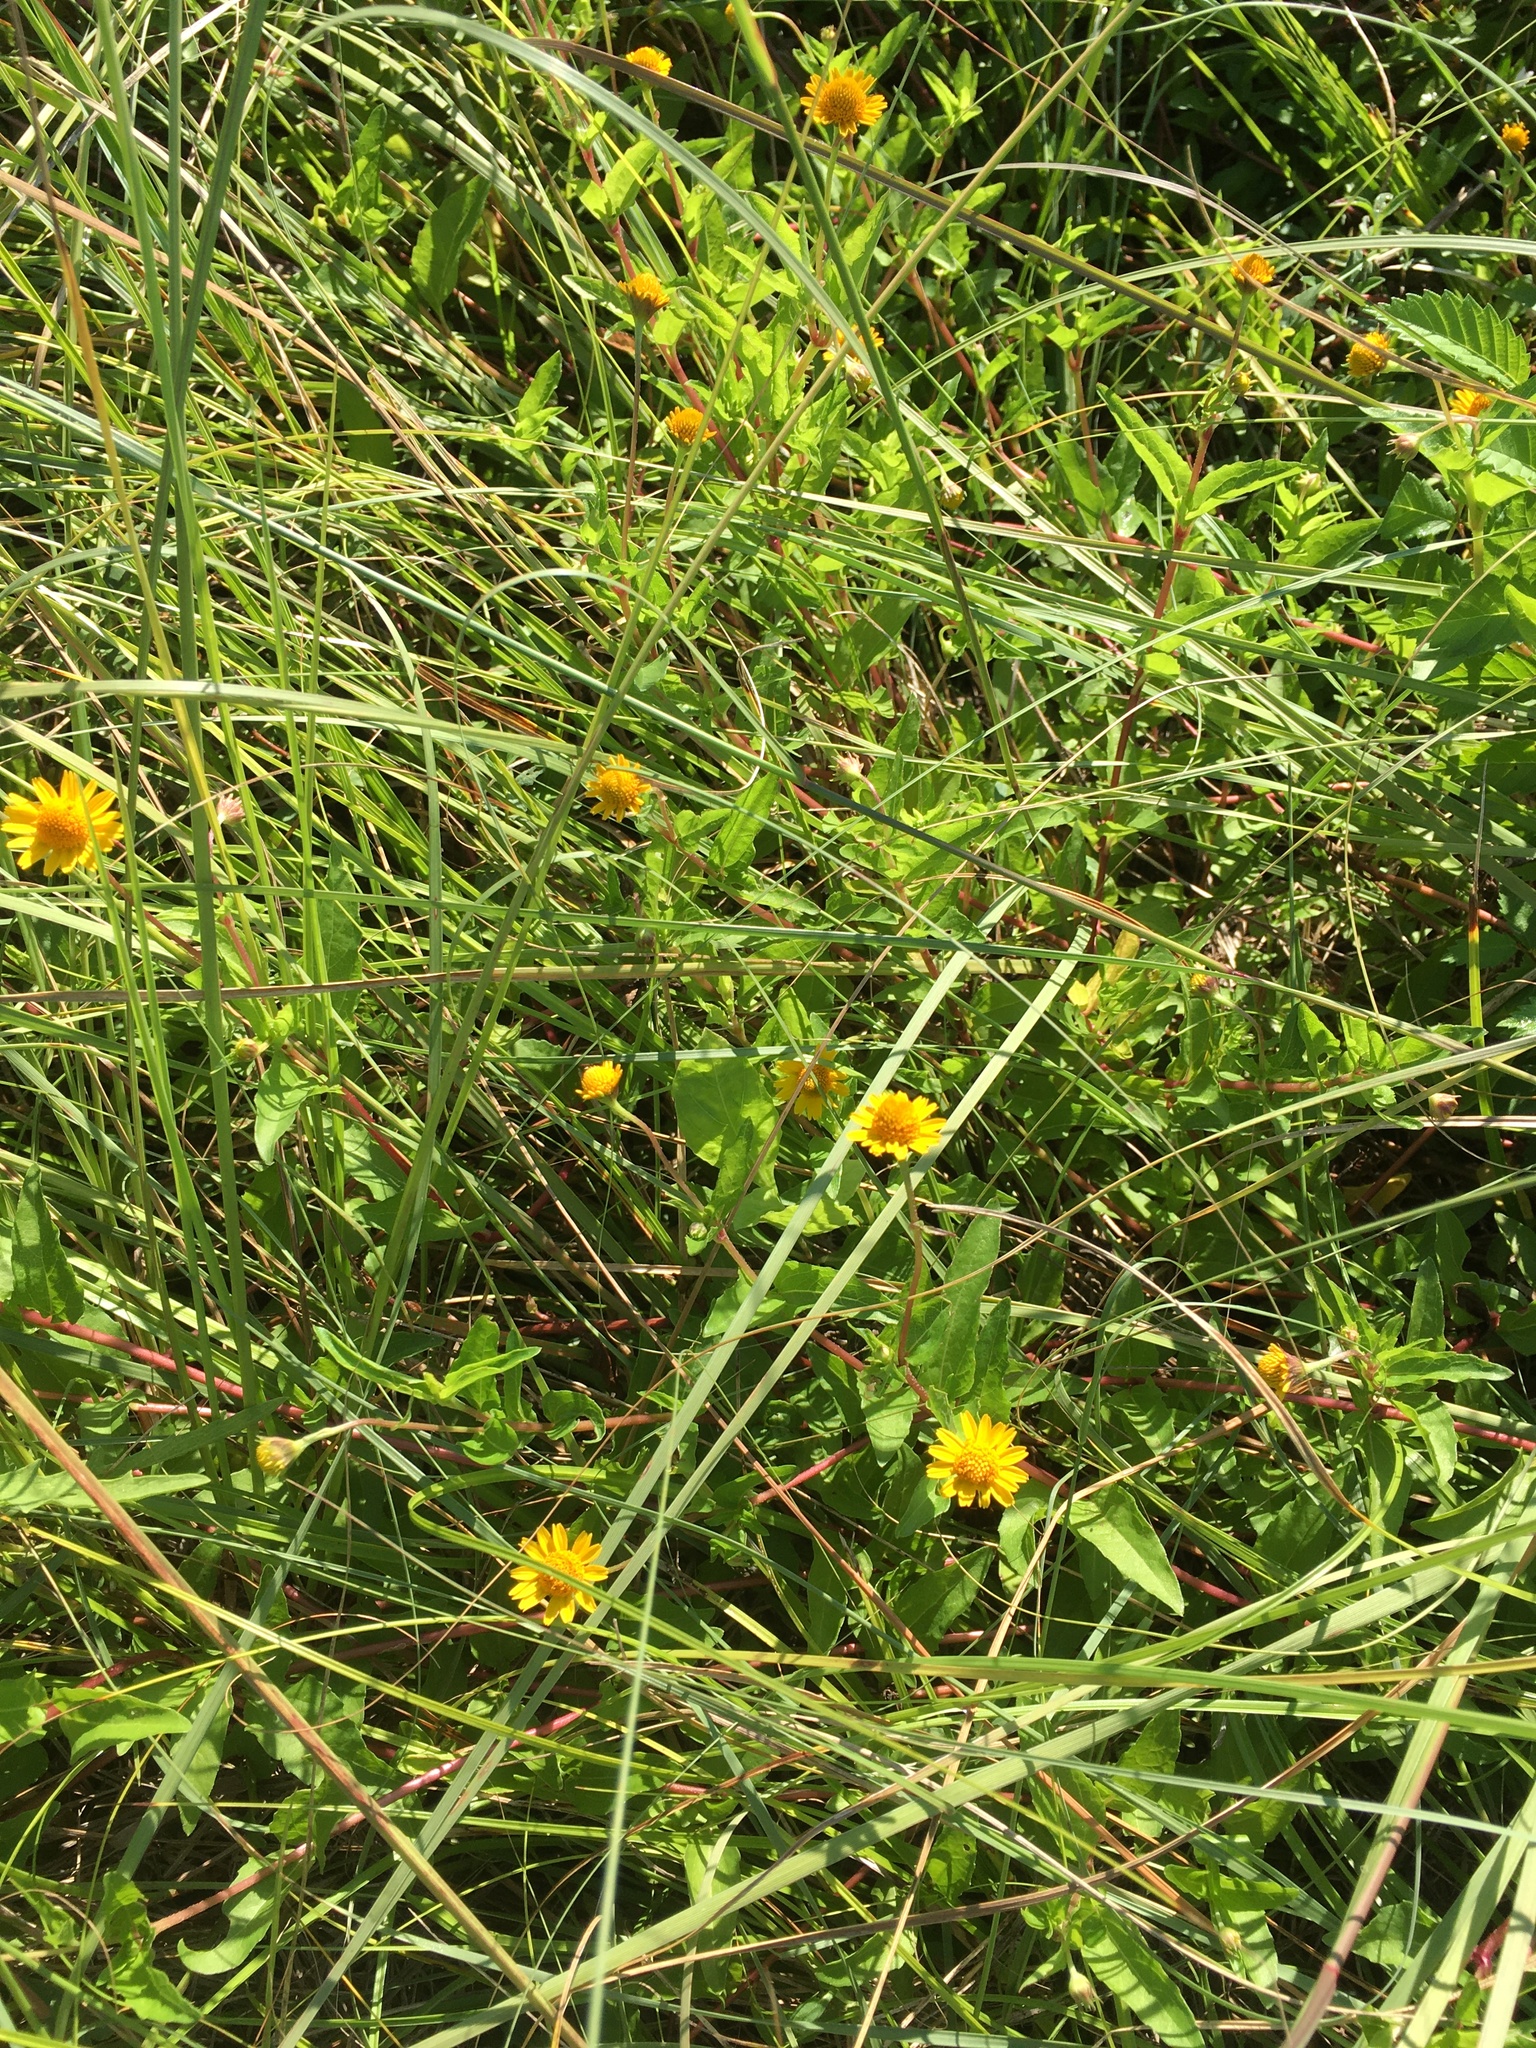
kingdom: Plantae
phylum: Tracheophyta
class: Magnoliopsida
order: Asterales
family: Asteraceae
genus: Acmella
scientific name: Acmella repens
